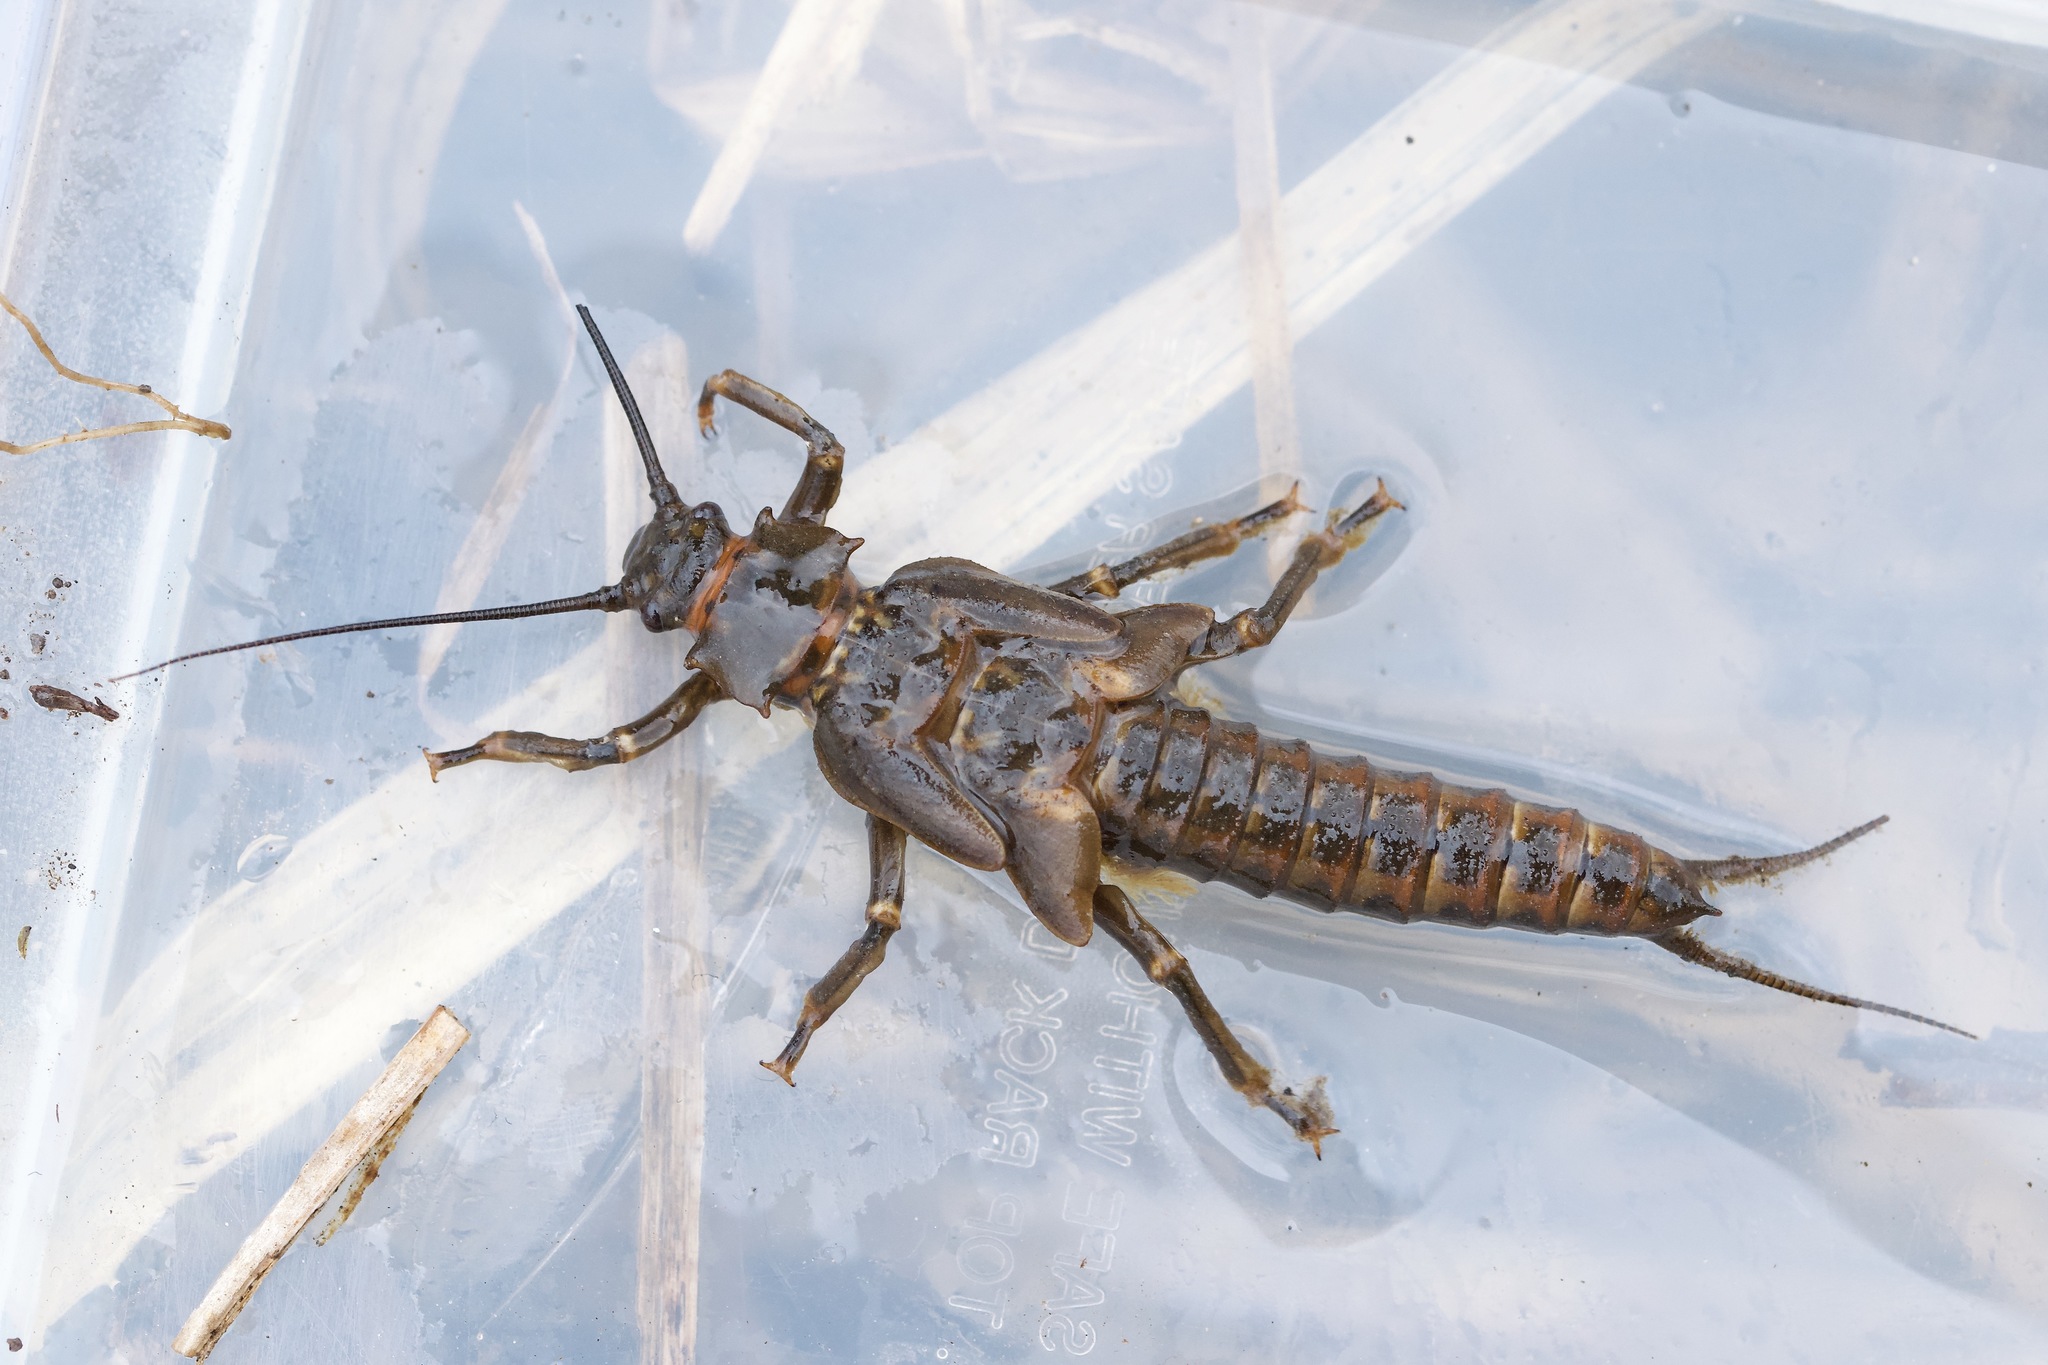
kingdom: Animalia
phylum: Arthropoda
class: Insecta
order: Plecoptera
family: Pteronarcyidae
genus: Pteronarcys
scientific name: Pteronarcys dorsata
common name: American salmonfly
